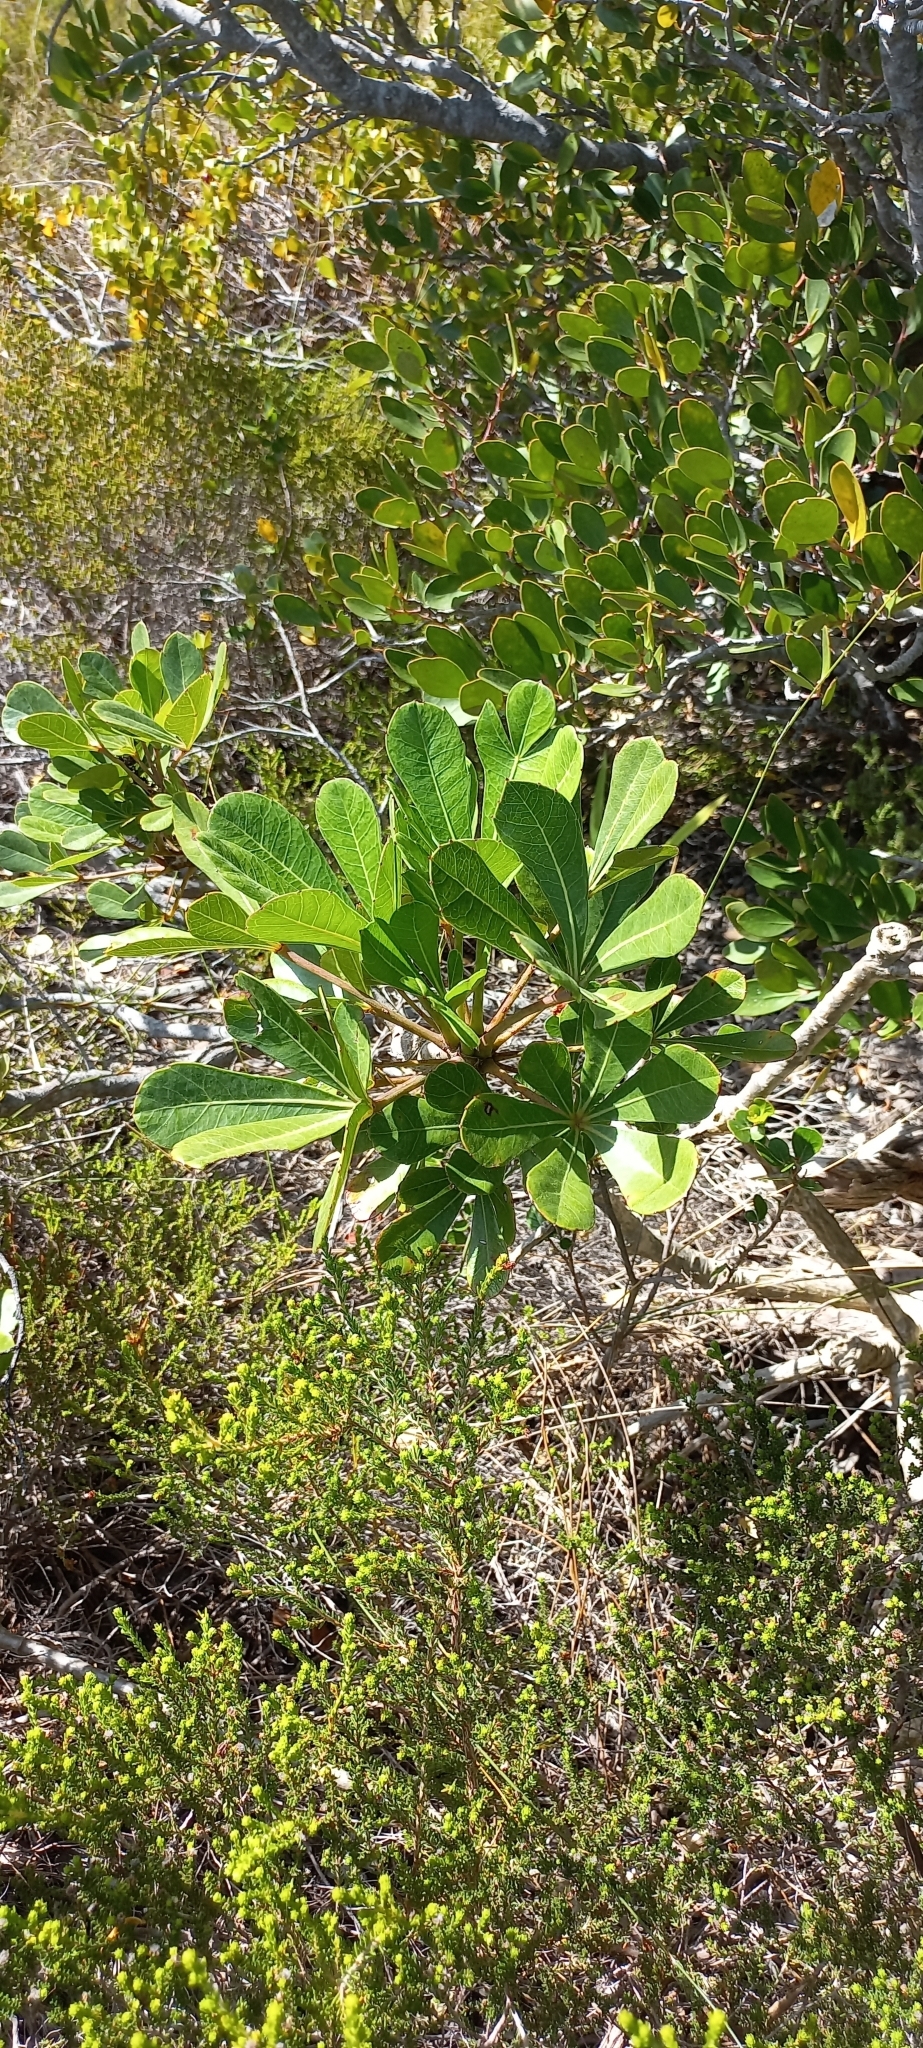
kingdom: Plantae
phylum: Tracheophyta
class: Magnoliopsida
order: Apiales
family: Araliaceae
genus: Cussonia
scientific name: Cussonia thyrsiflora
